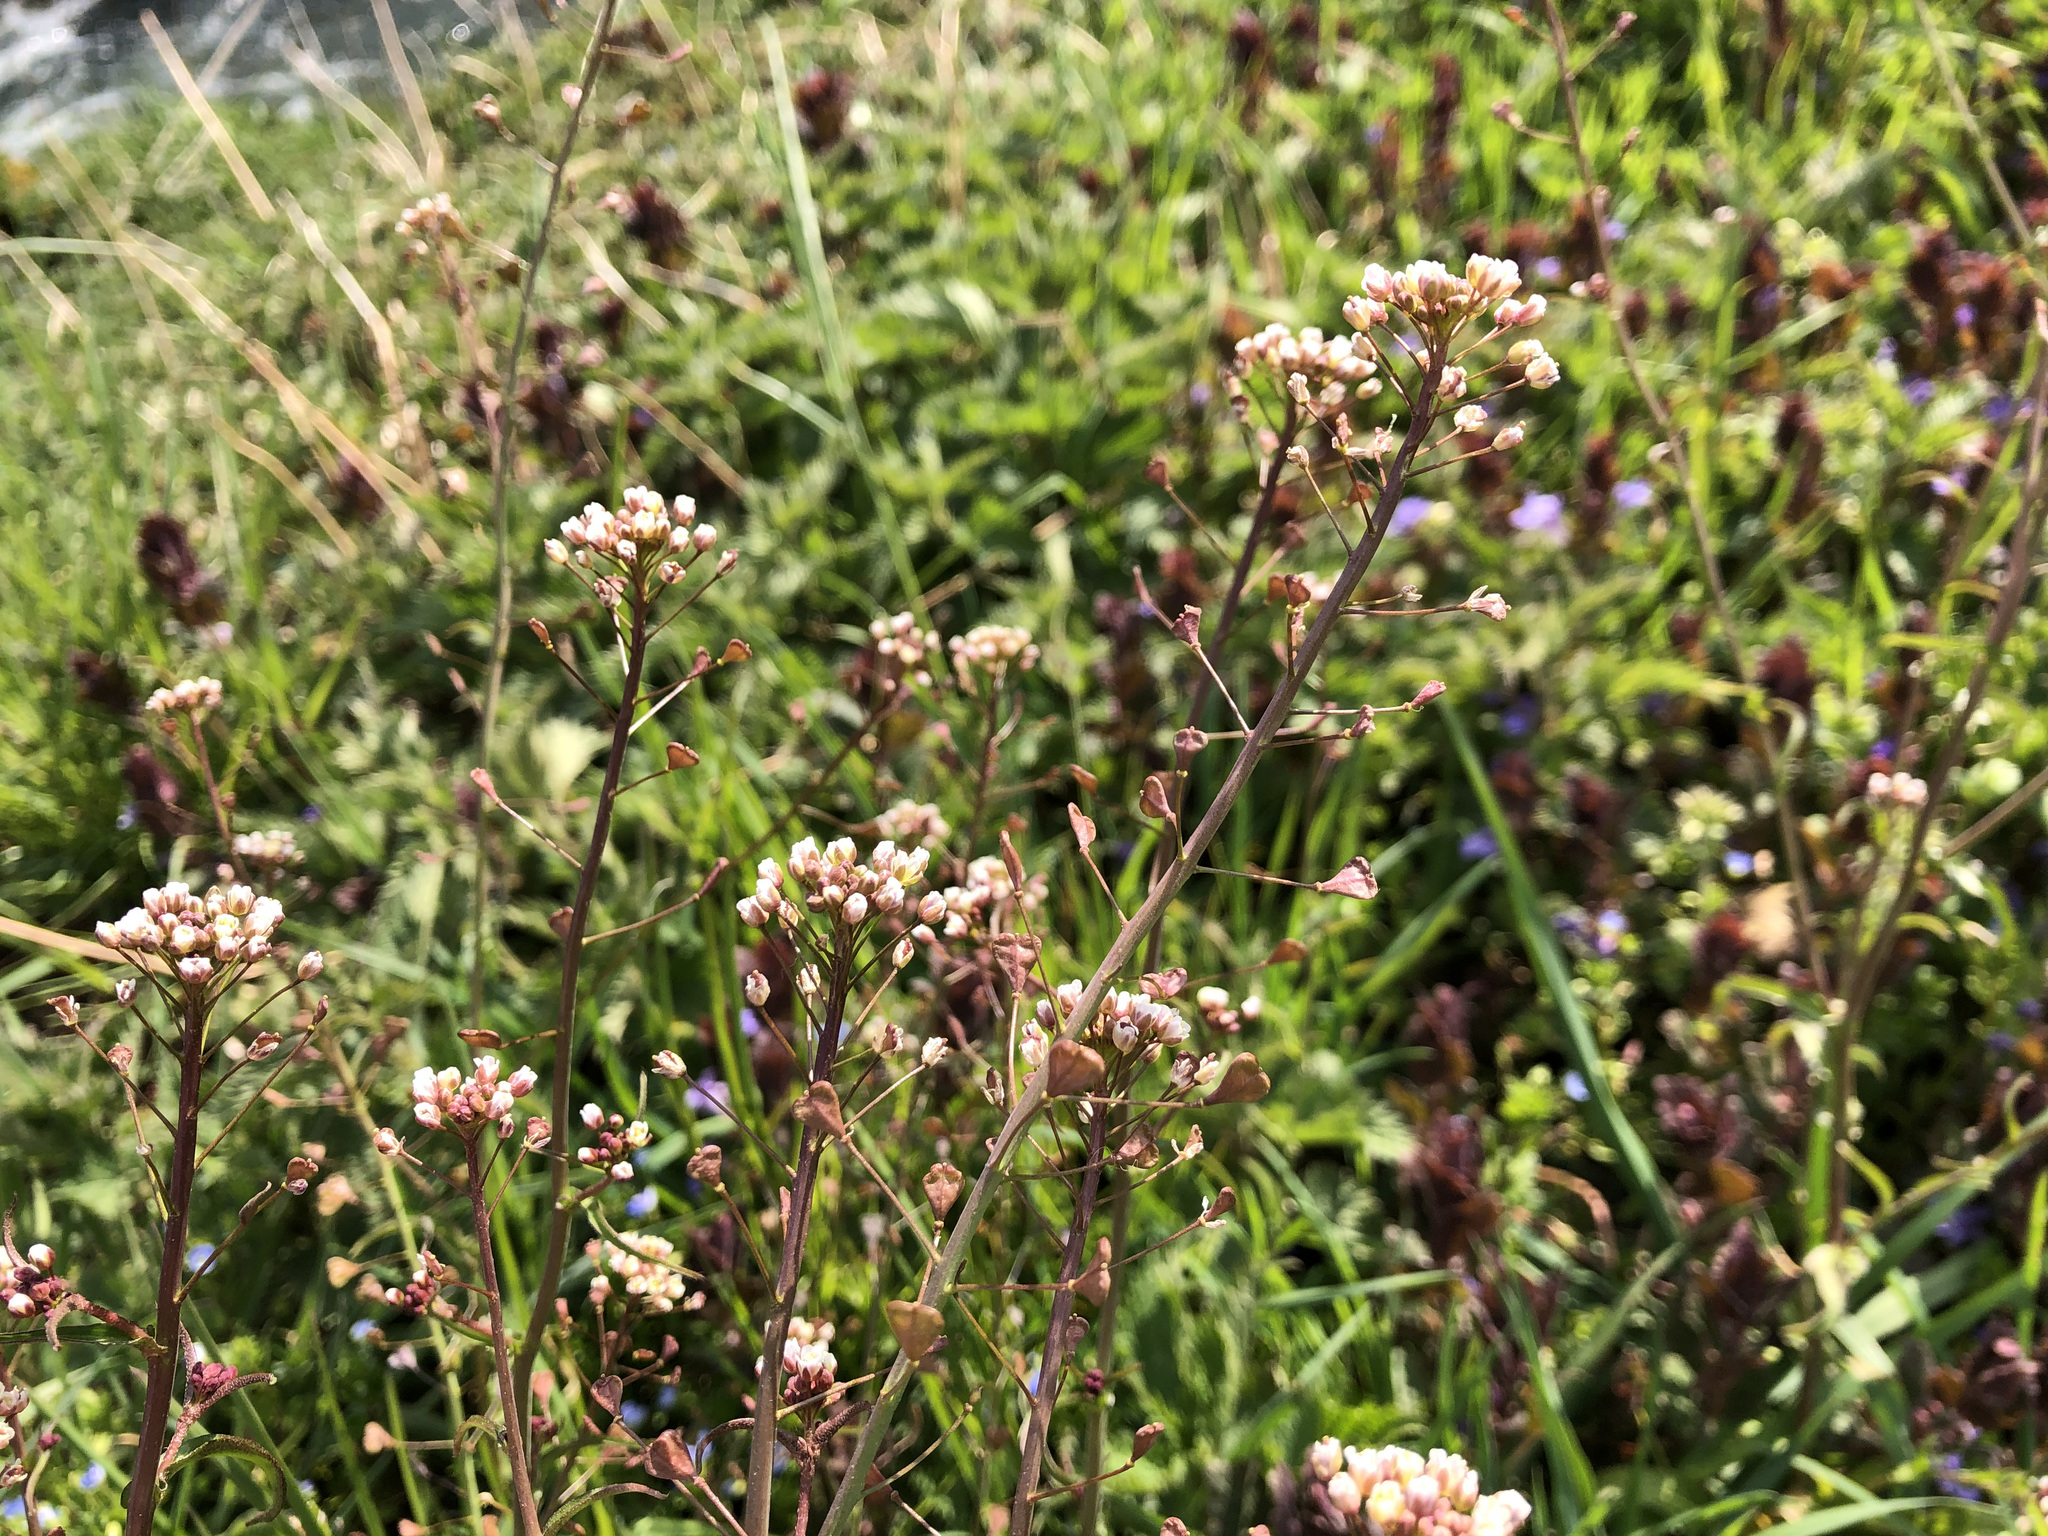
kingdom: Plantae
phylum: Tracheophyta
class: Magnoliopsida
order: Brassicales
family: Brassicaceae
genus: Capsella
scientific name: Capsella bursa-pastoris
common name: Shepherd's purse
